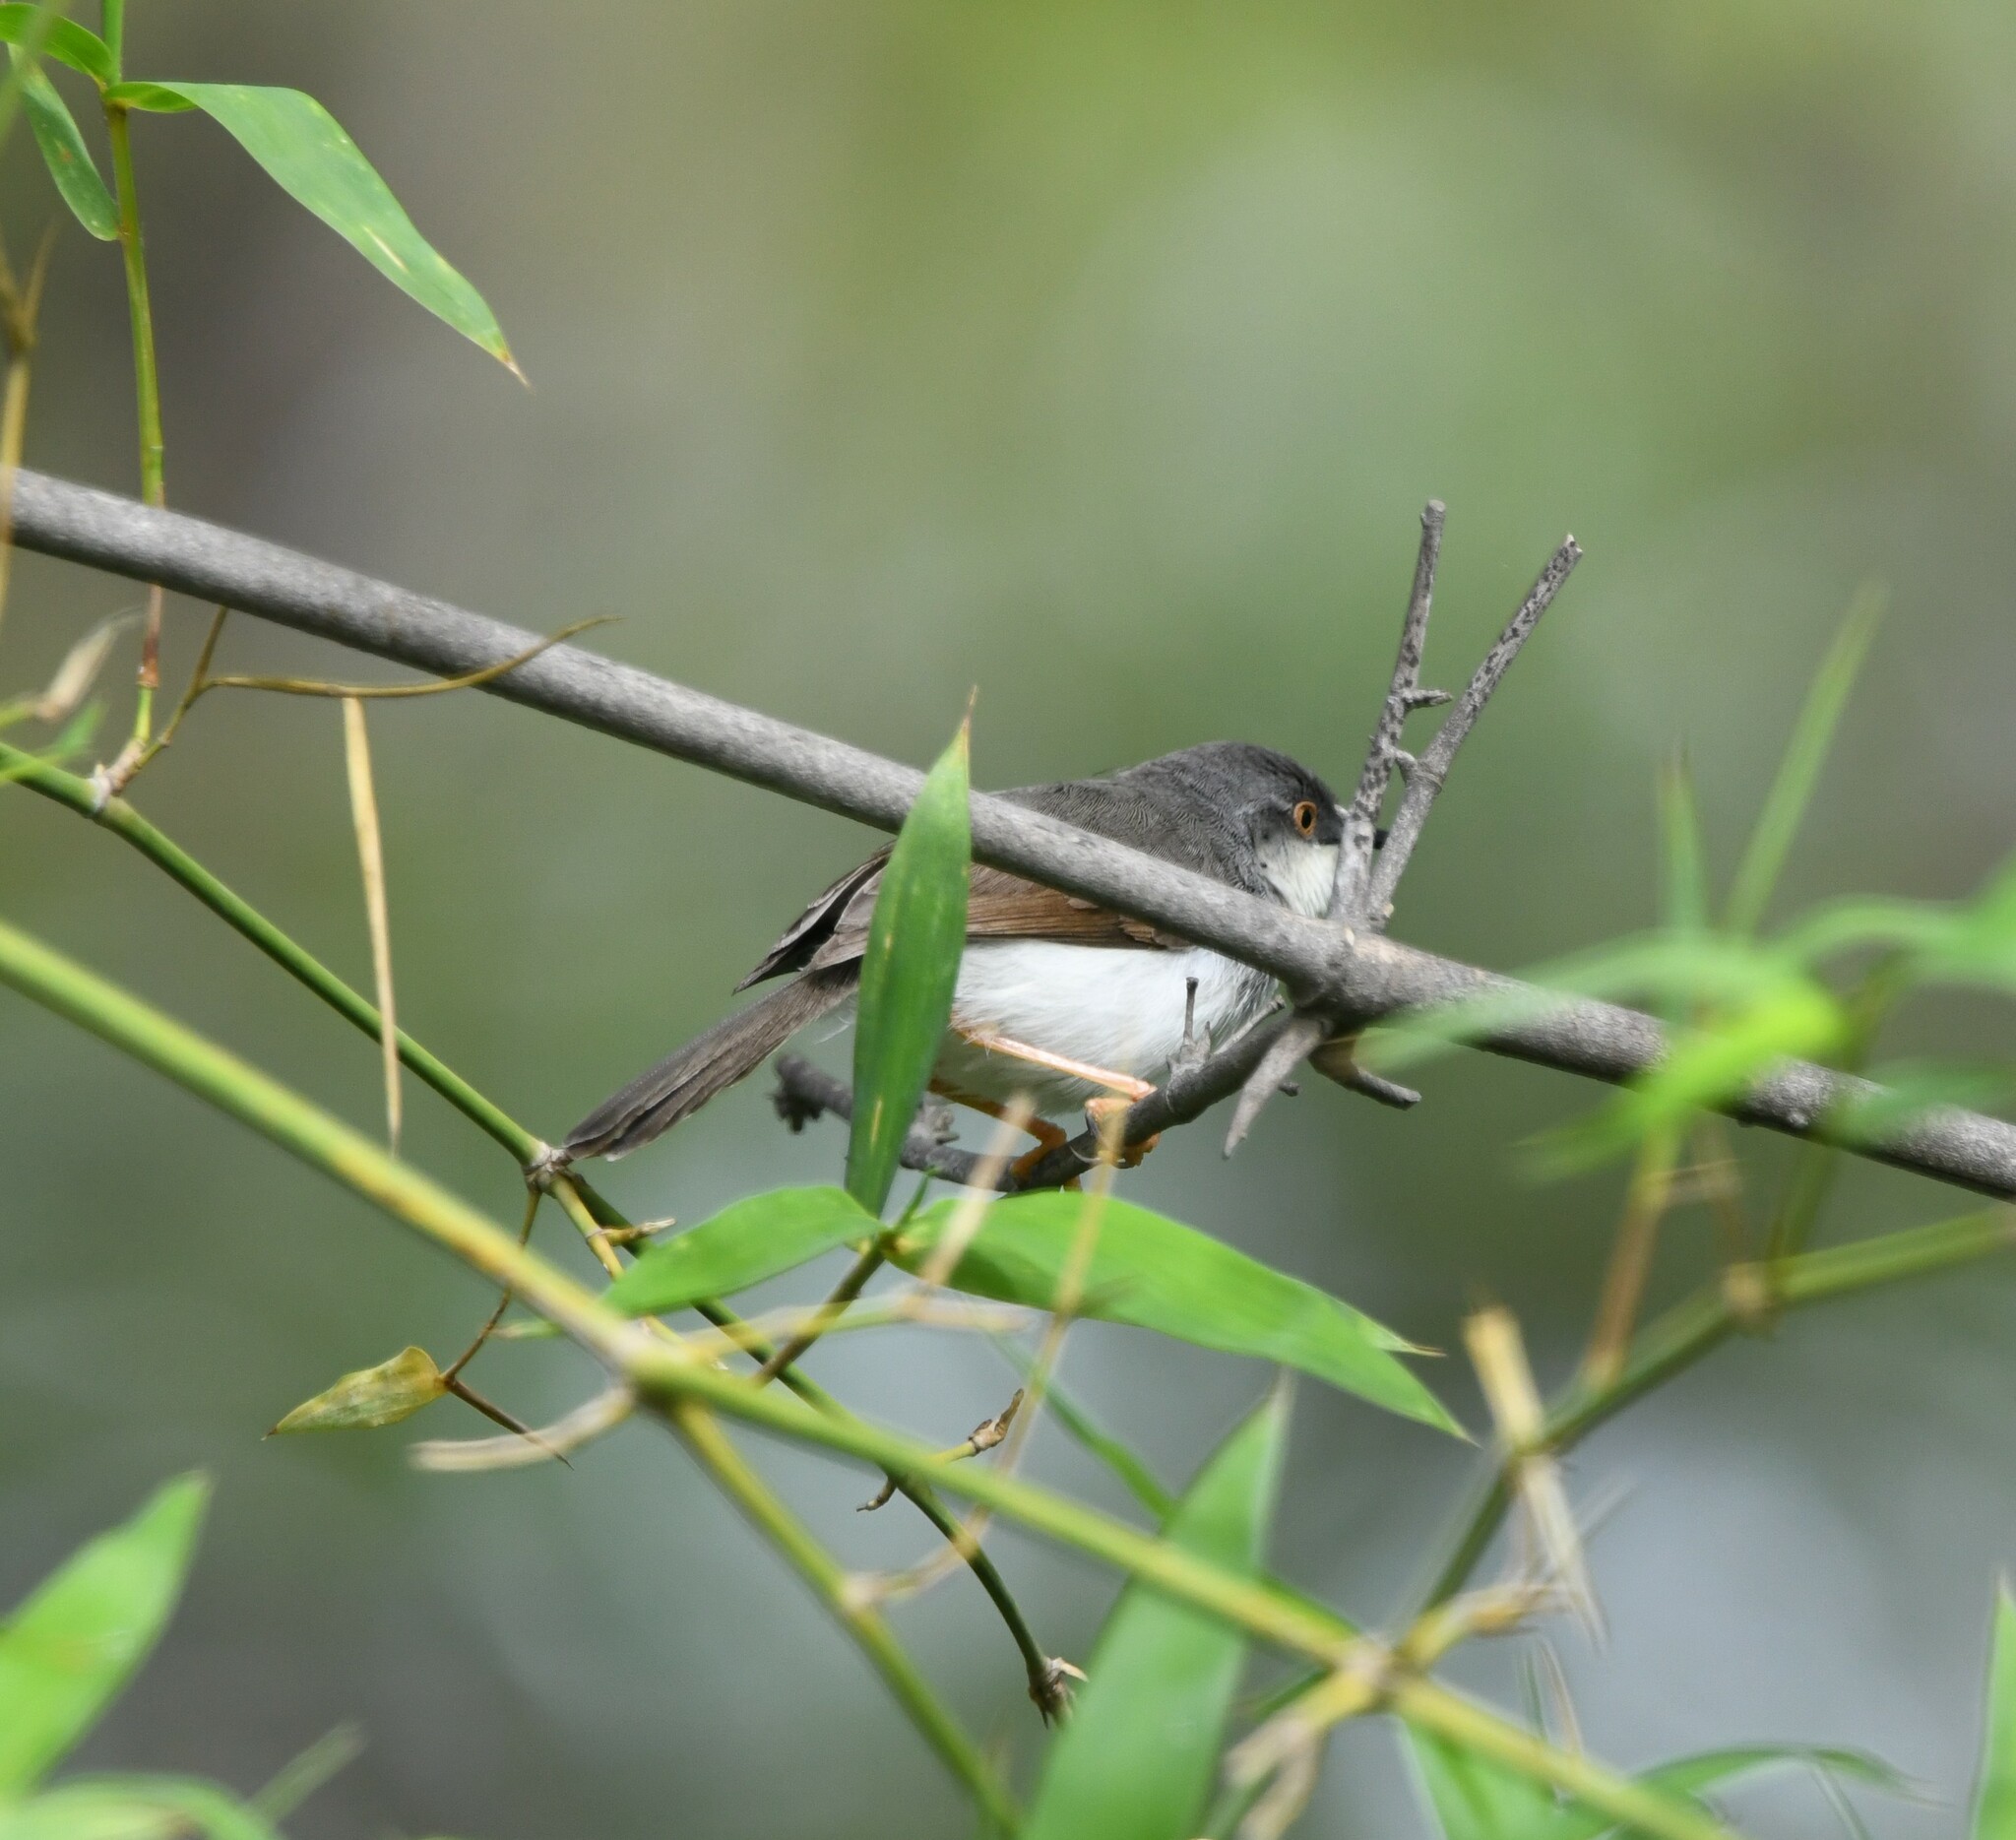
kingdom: Animalia
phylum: Chordata
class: Aves
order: Passeriformes
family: Cisticolidae
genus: Prinia
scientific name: Prinia hodgsonii
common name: Grey-breasted prinia
